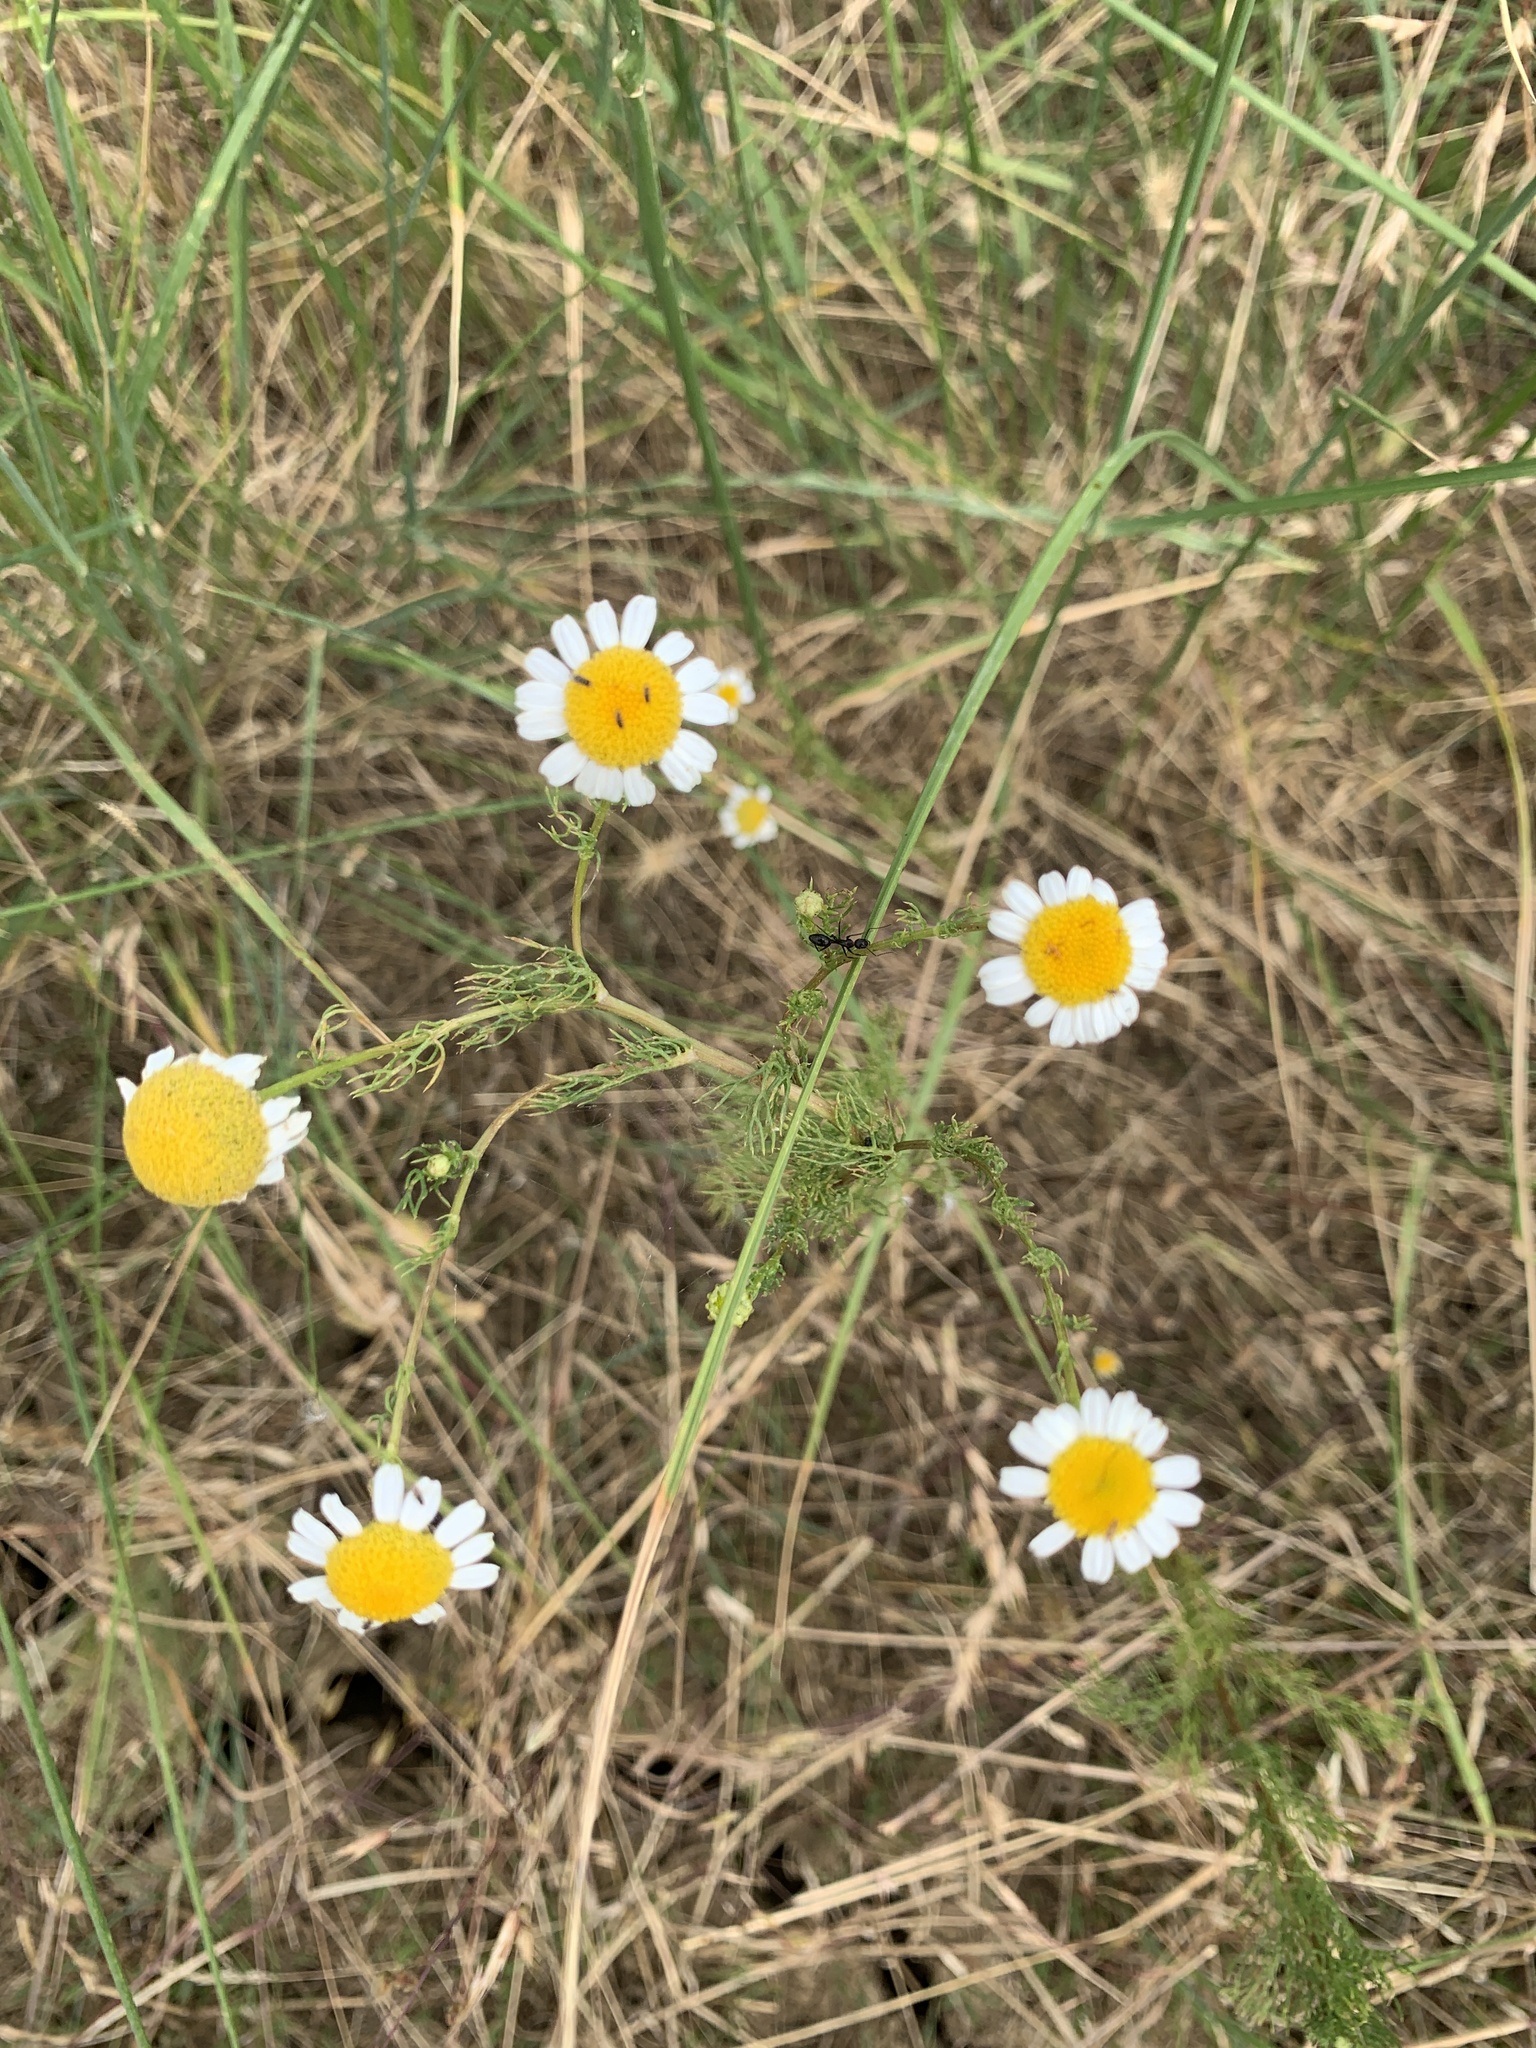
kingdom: Plantae
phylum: Tracheophyta
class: Magnoliopsida
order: Asterales
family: Asteraceae
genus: Tripleurospermum
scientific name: Tripleurospermum inodorum
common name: Scentless mayweed
